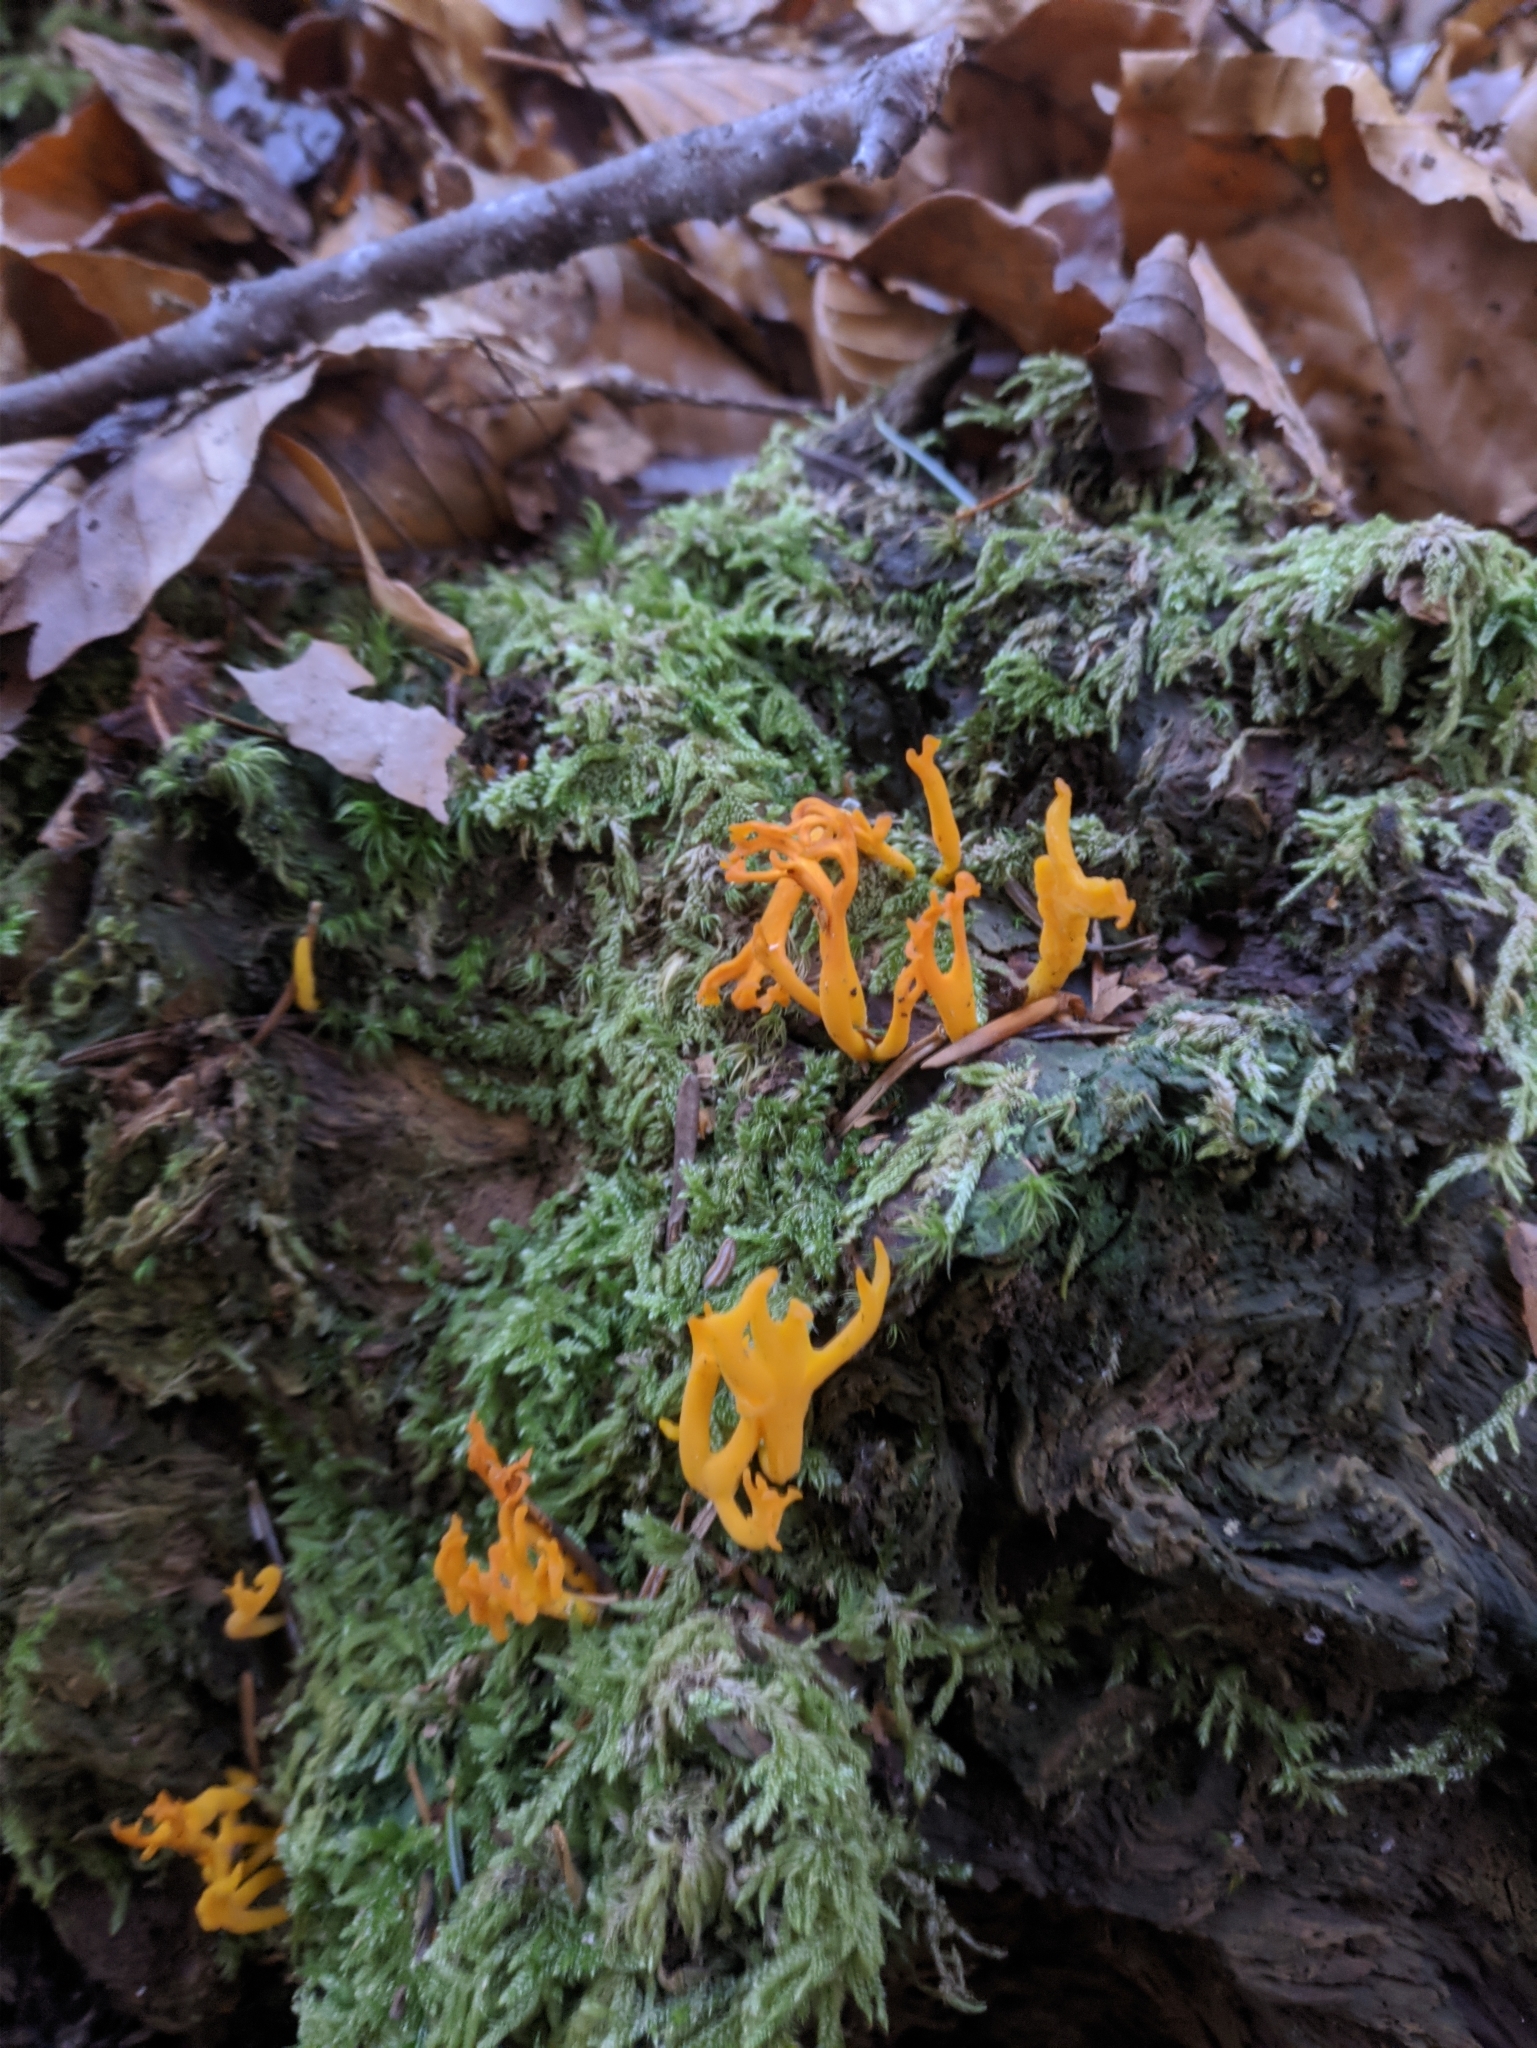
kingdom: Fungi
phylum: Basidiomycota
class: Dacrymycetes
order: Dacrymycetales
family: Dacrymycetaceae
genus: Calocera
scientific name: Calocera viscosa
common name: Yellow stagshorn
